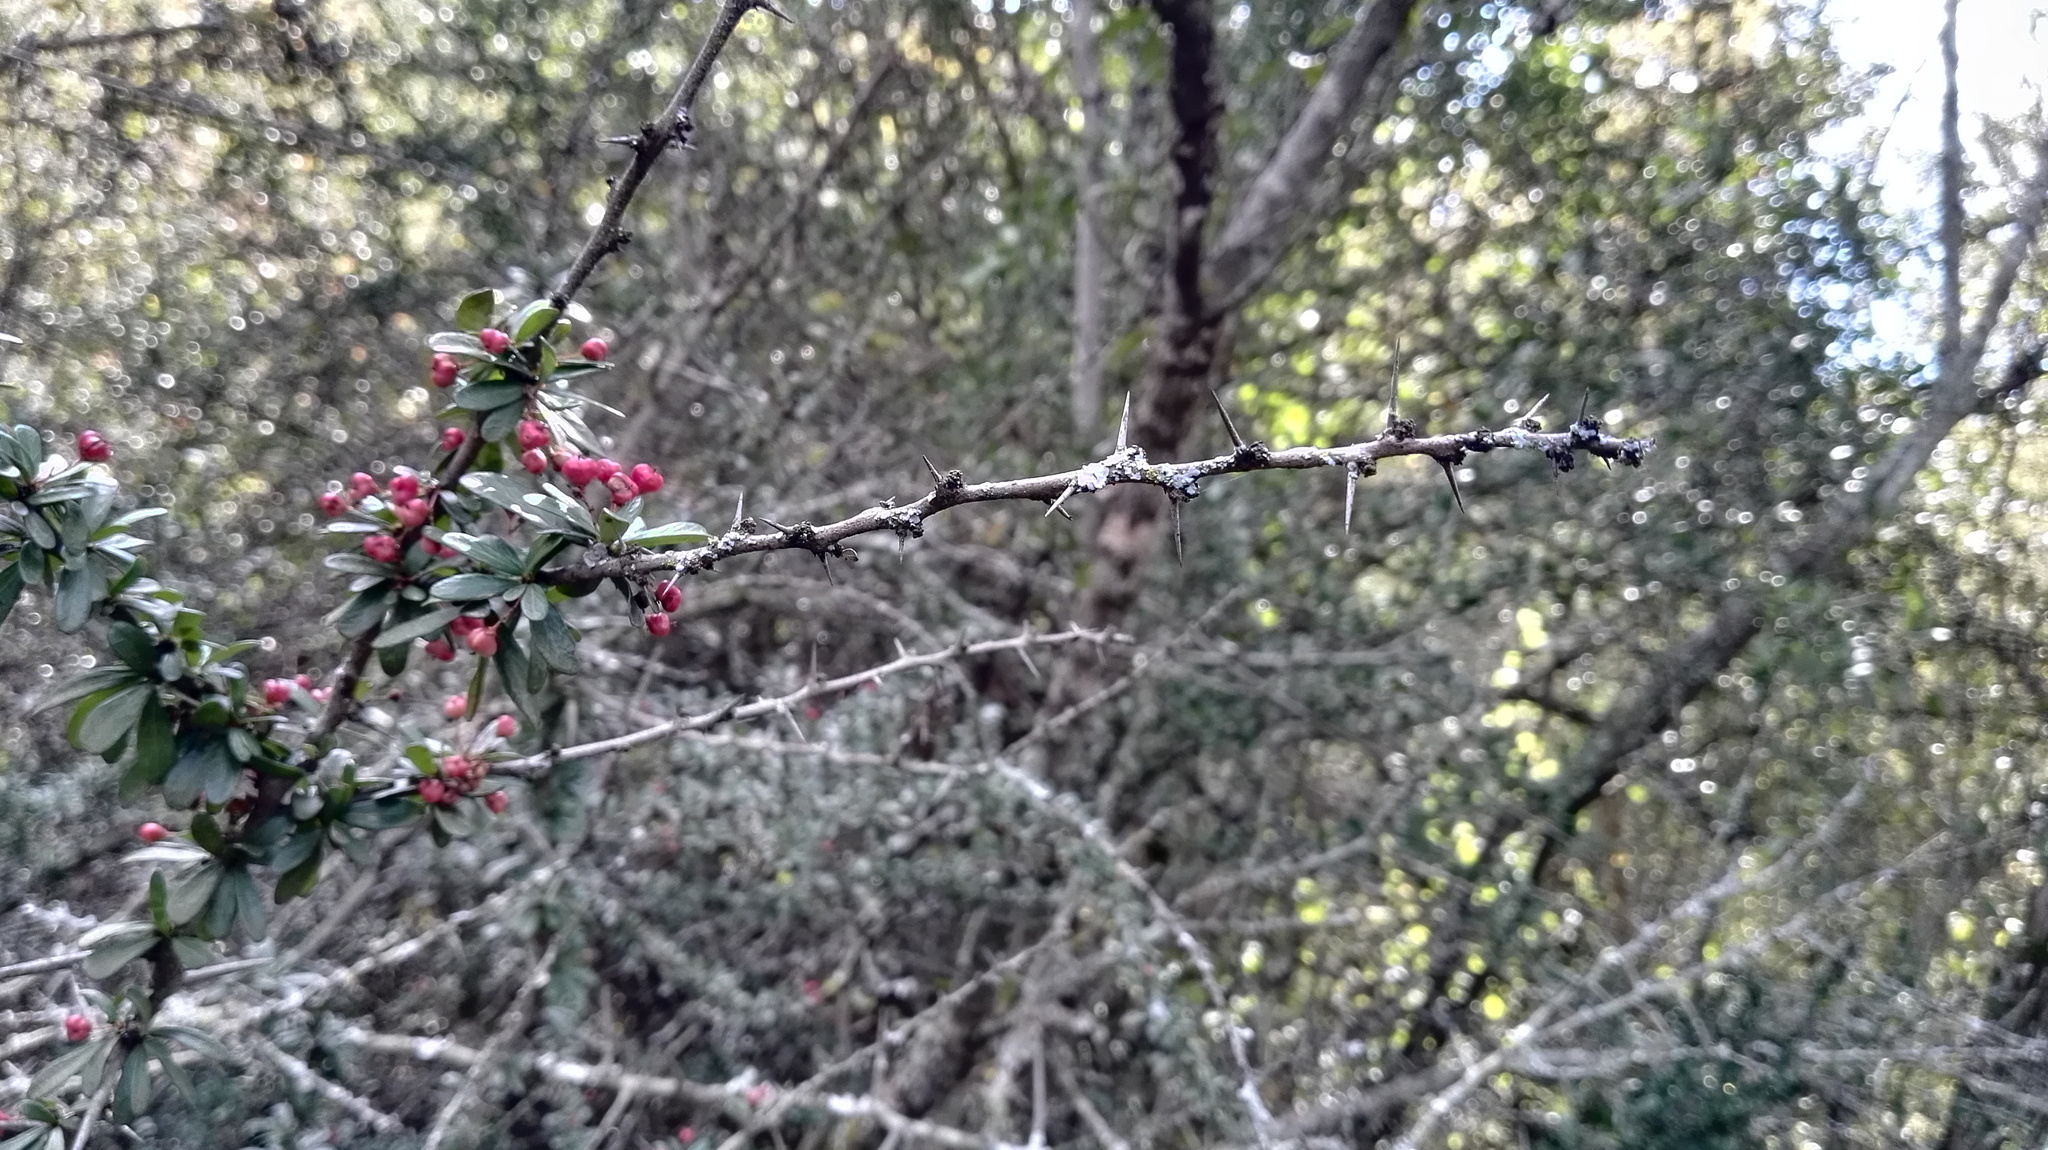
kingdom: Plantae
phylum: Tracheophyta
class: Magnoliopsida
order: Celastrales
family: Celastraceae
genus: Gymnosporia
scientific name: Gymnosporia polyacantha
